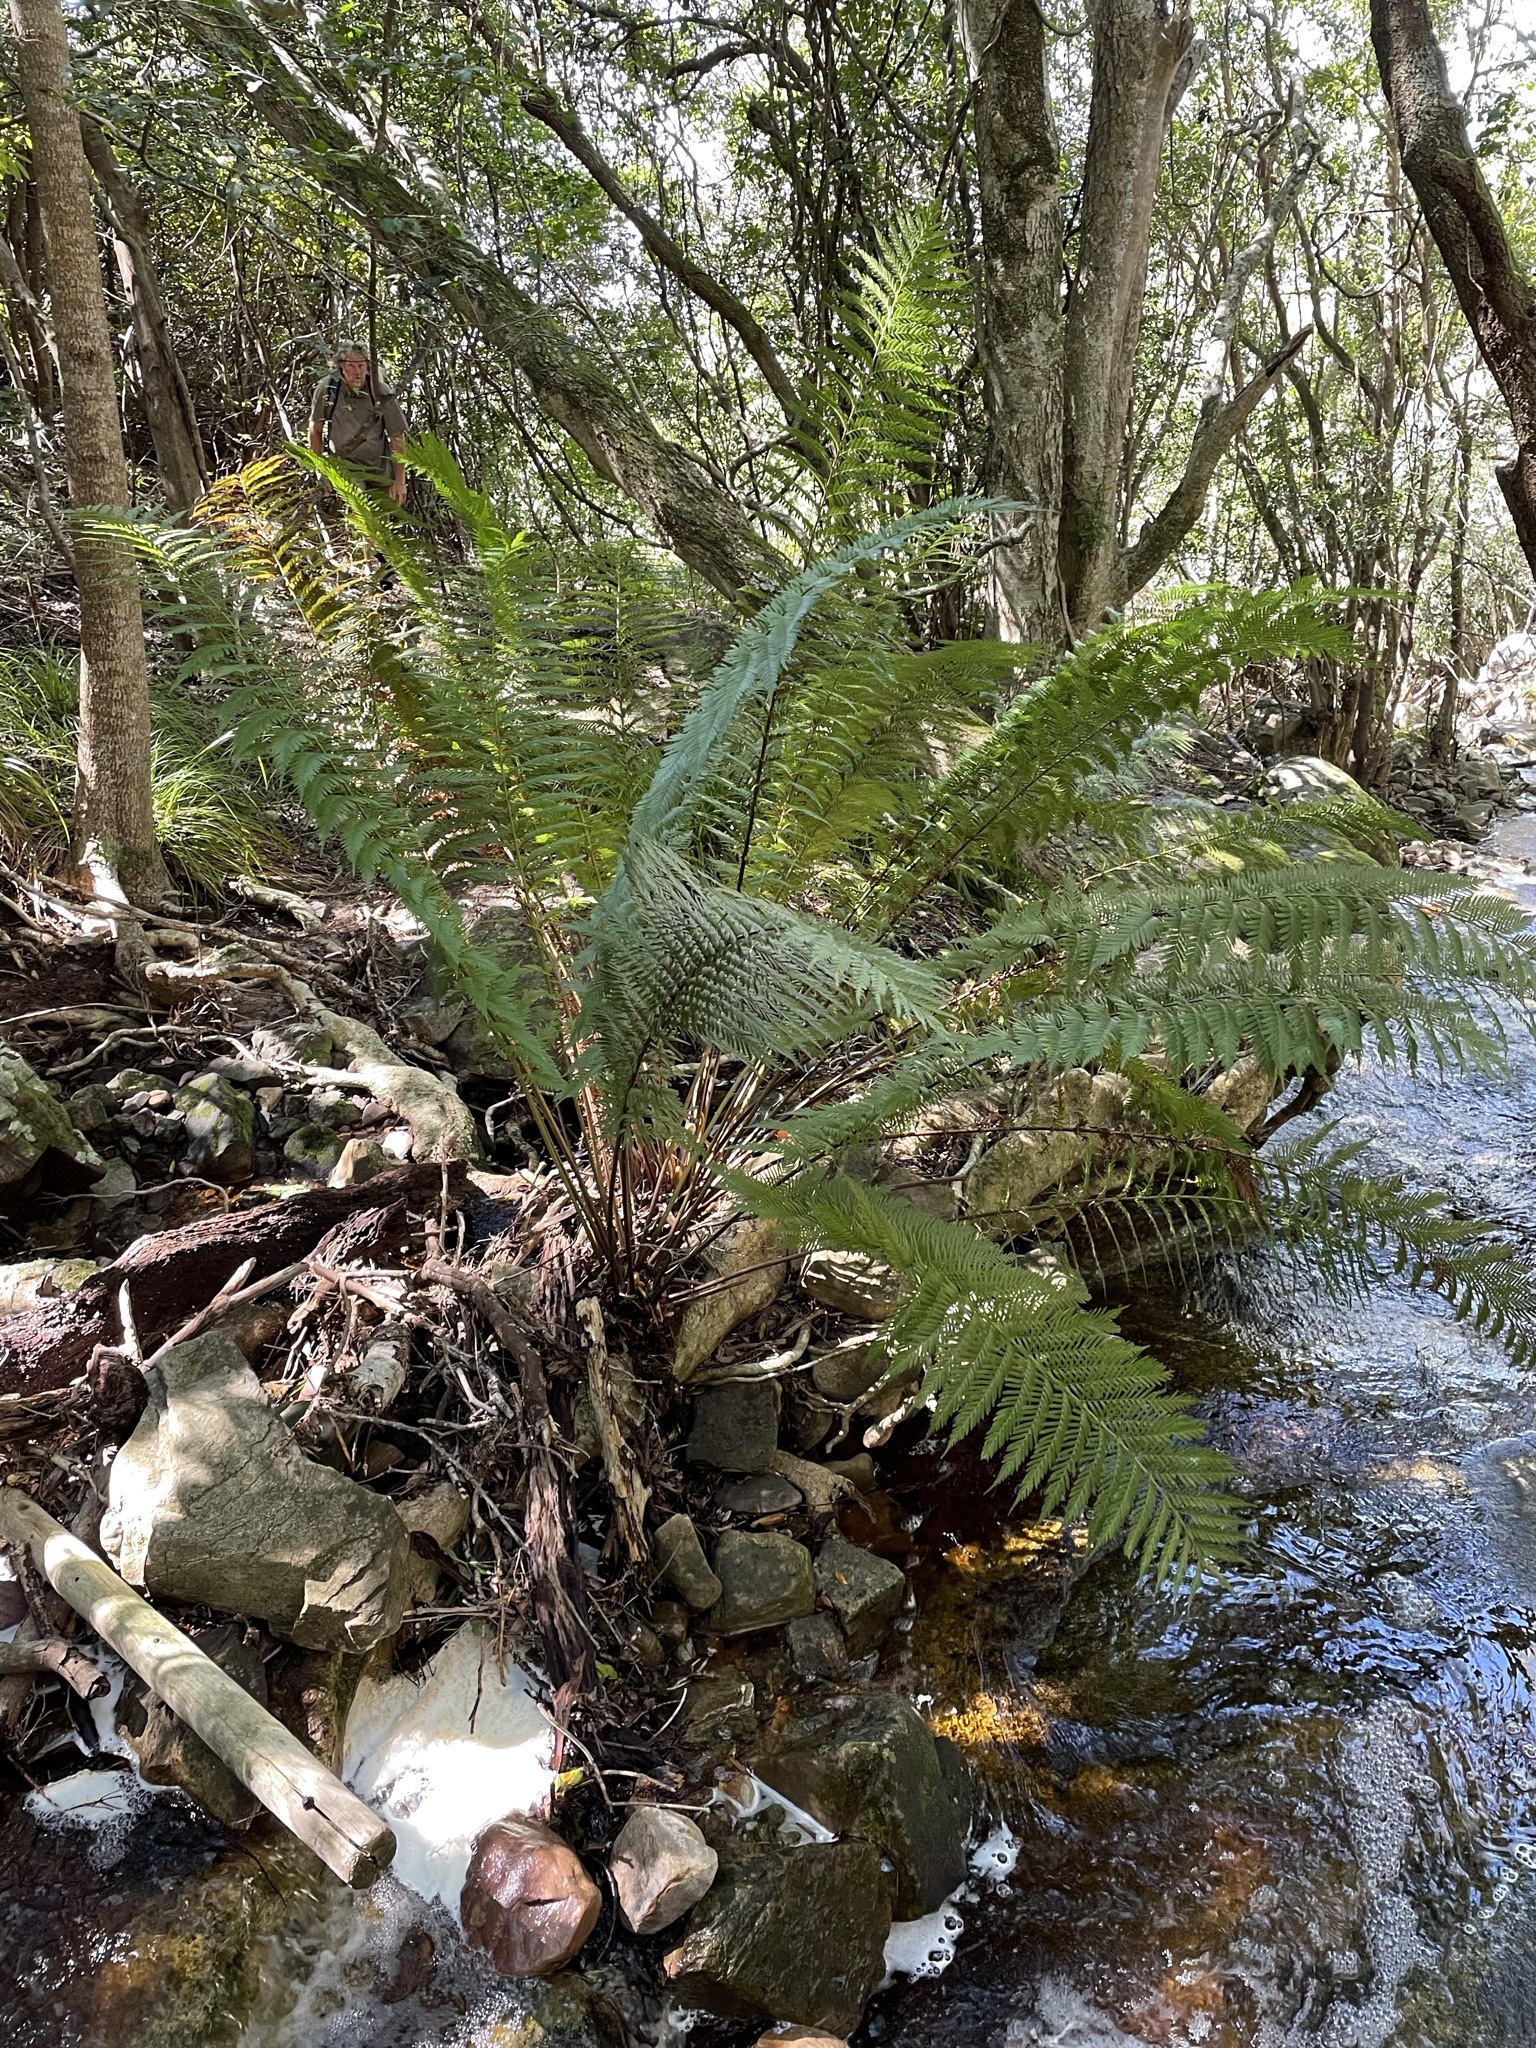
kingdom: Plantae
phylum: Tracheophyta
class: Polypodiopsida
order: Osmundales
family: Osmundaceae
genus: Todea
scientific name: Todea barbara
